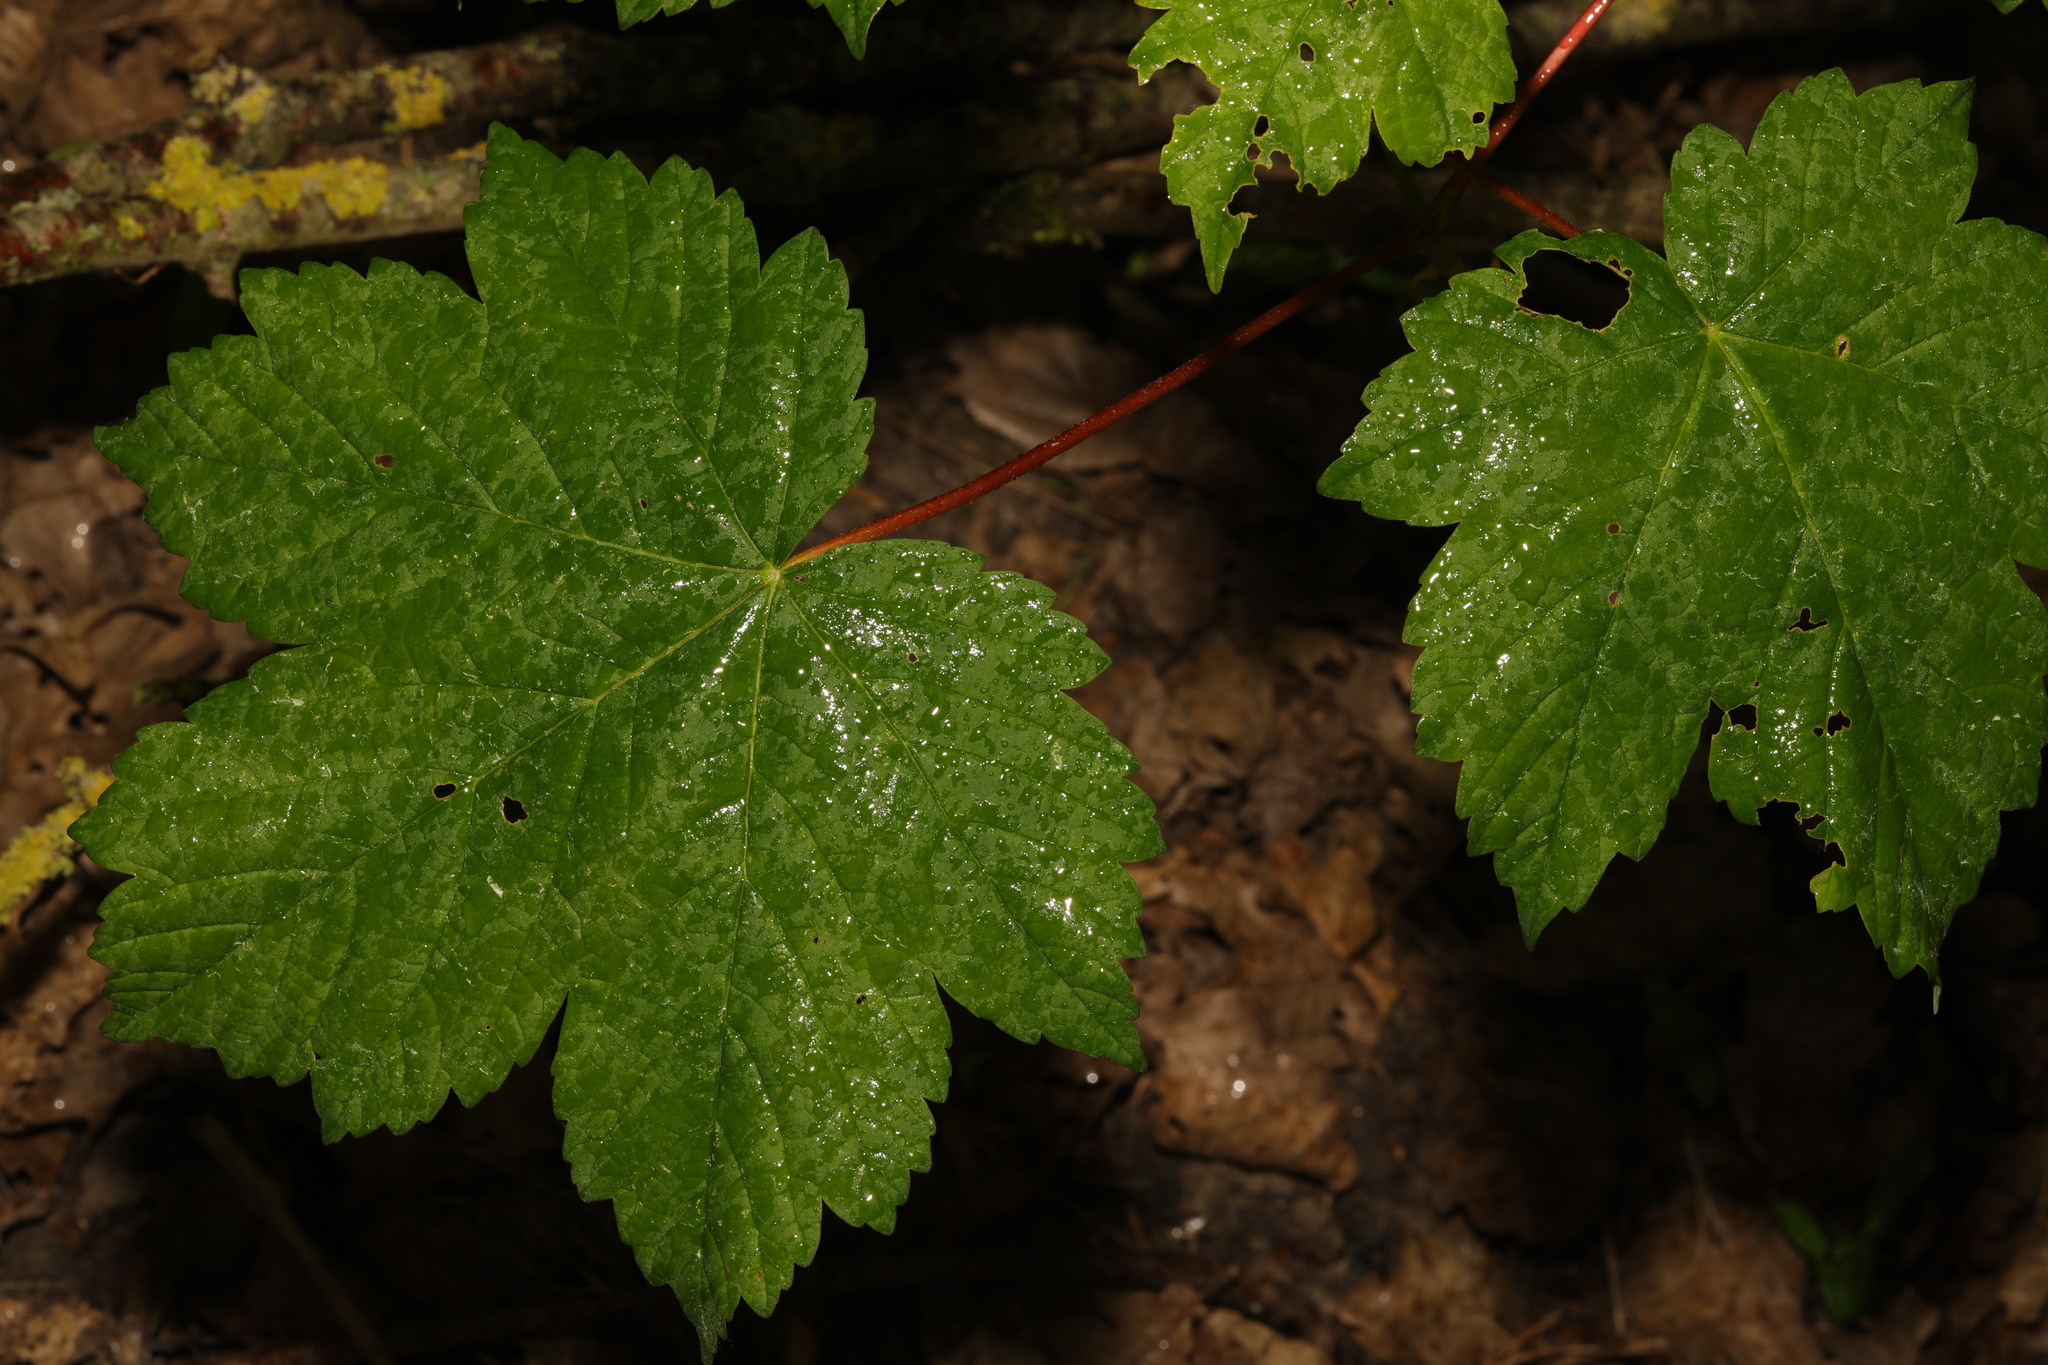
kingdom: Plantae
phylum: Tracheophyta
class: Magnoliopsida
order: Sapindales
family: Sapindaceae
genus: Acer
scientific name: Acer pseudoplatanus
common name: Sycamore
